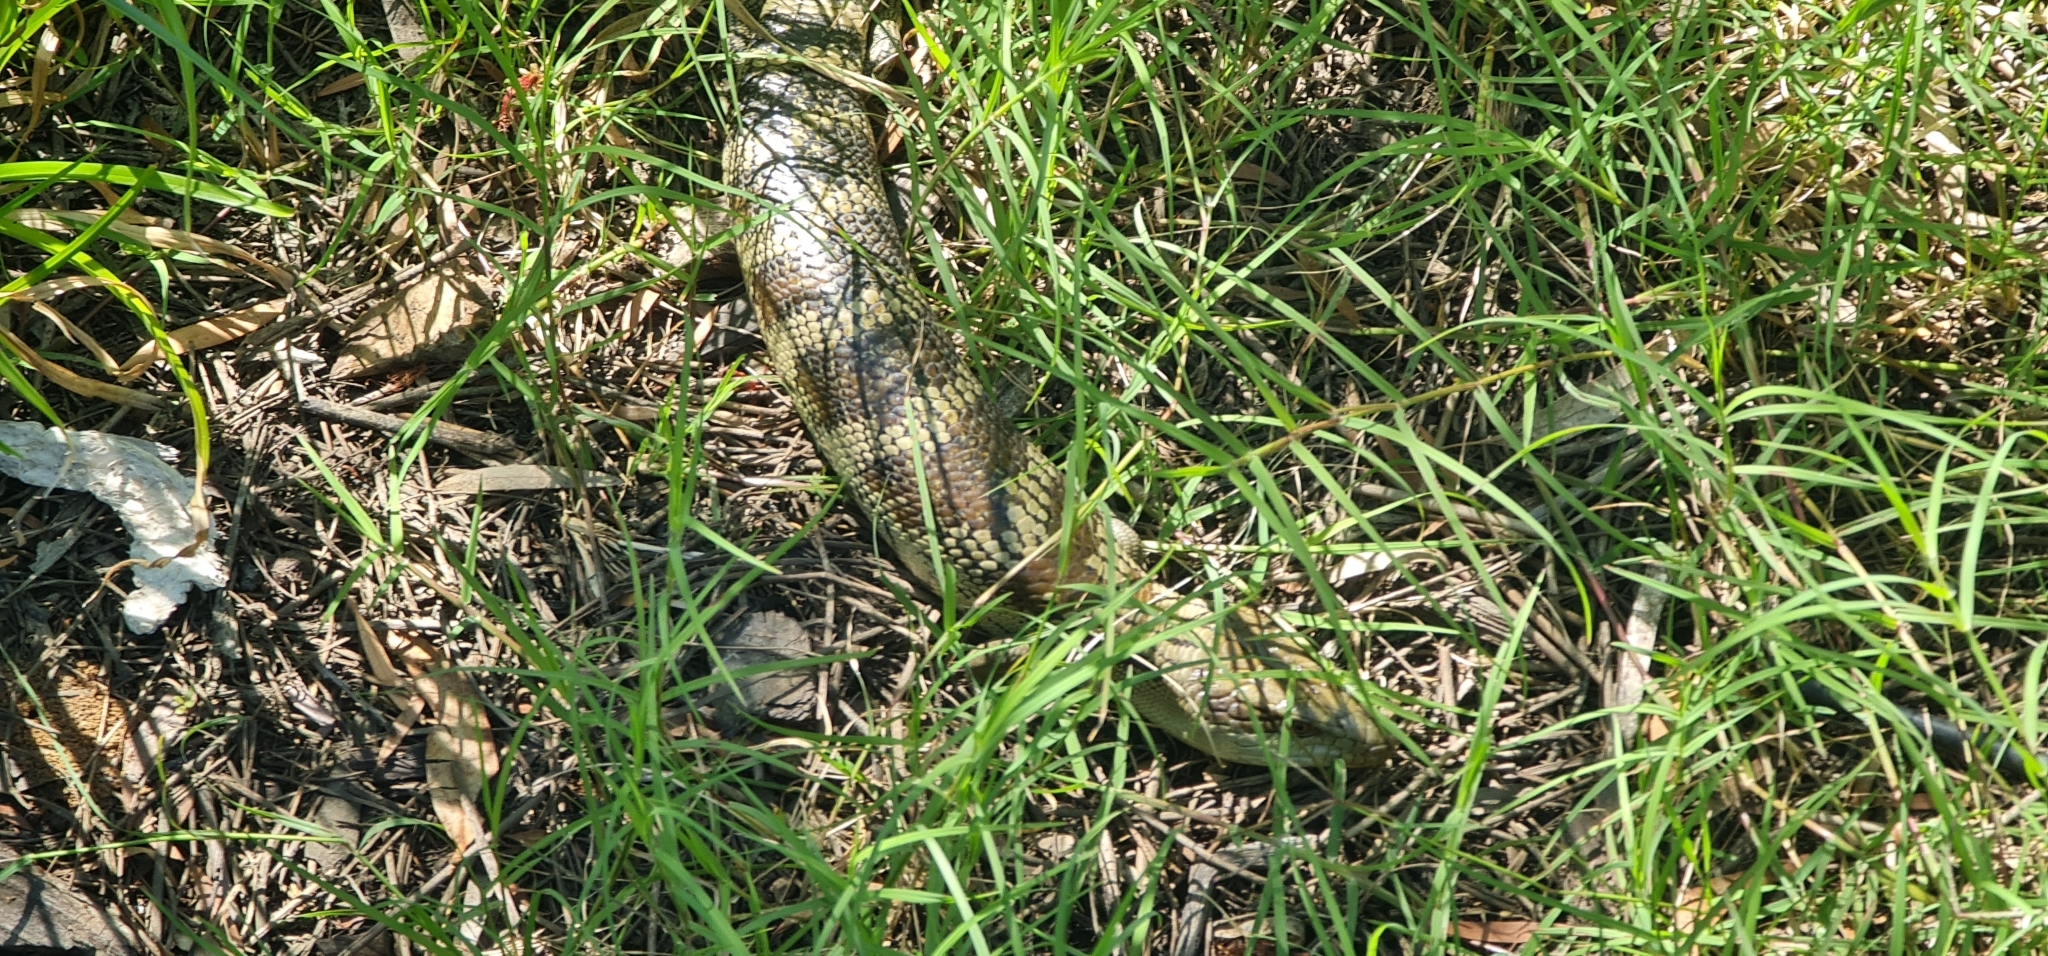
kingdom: Animalia
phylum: Chordata
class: Squamata
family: Scincidae
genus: Tiliqua
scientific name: Tiliqua scincoides
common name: Common bluetongue
